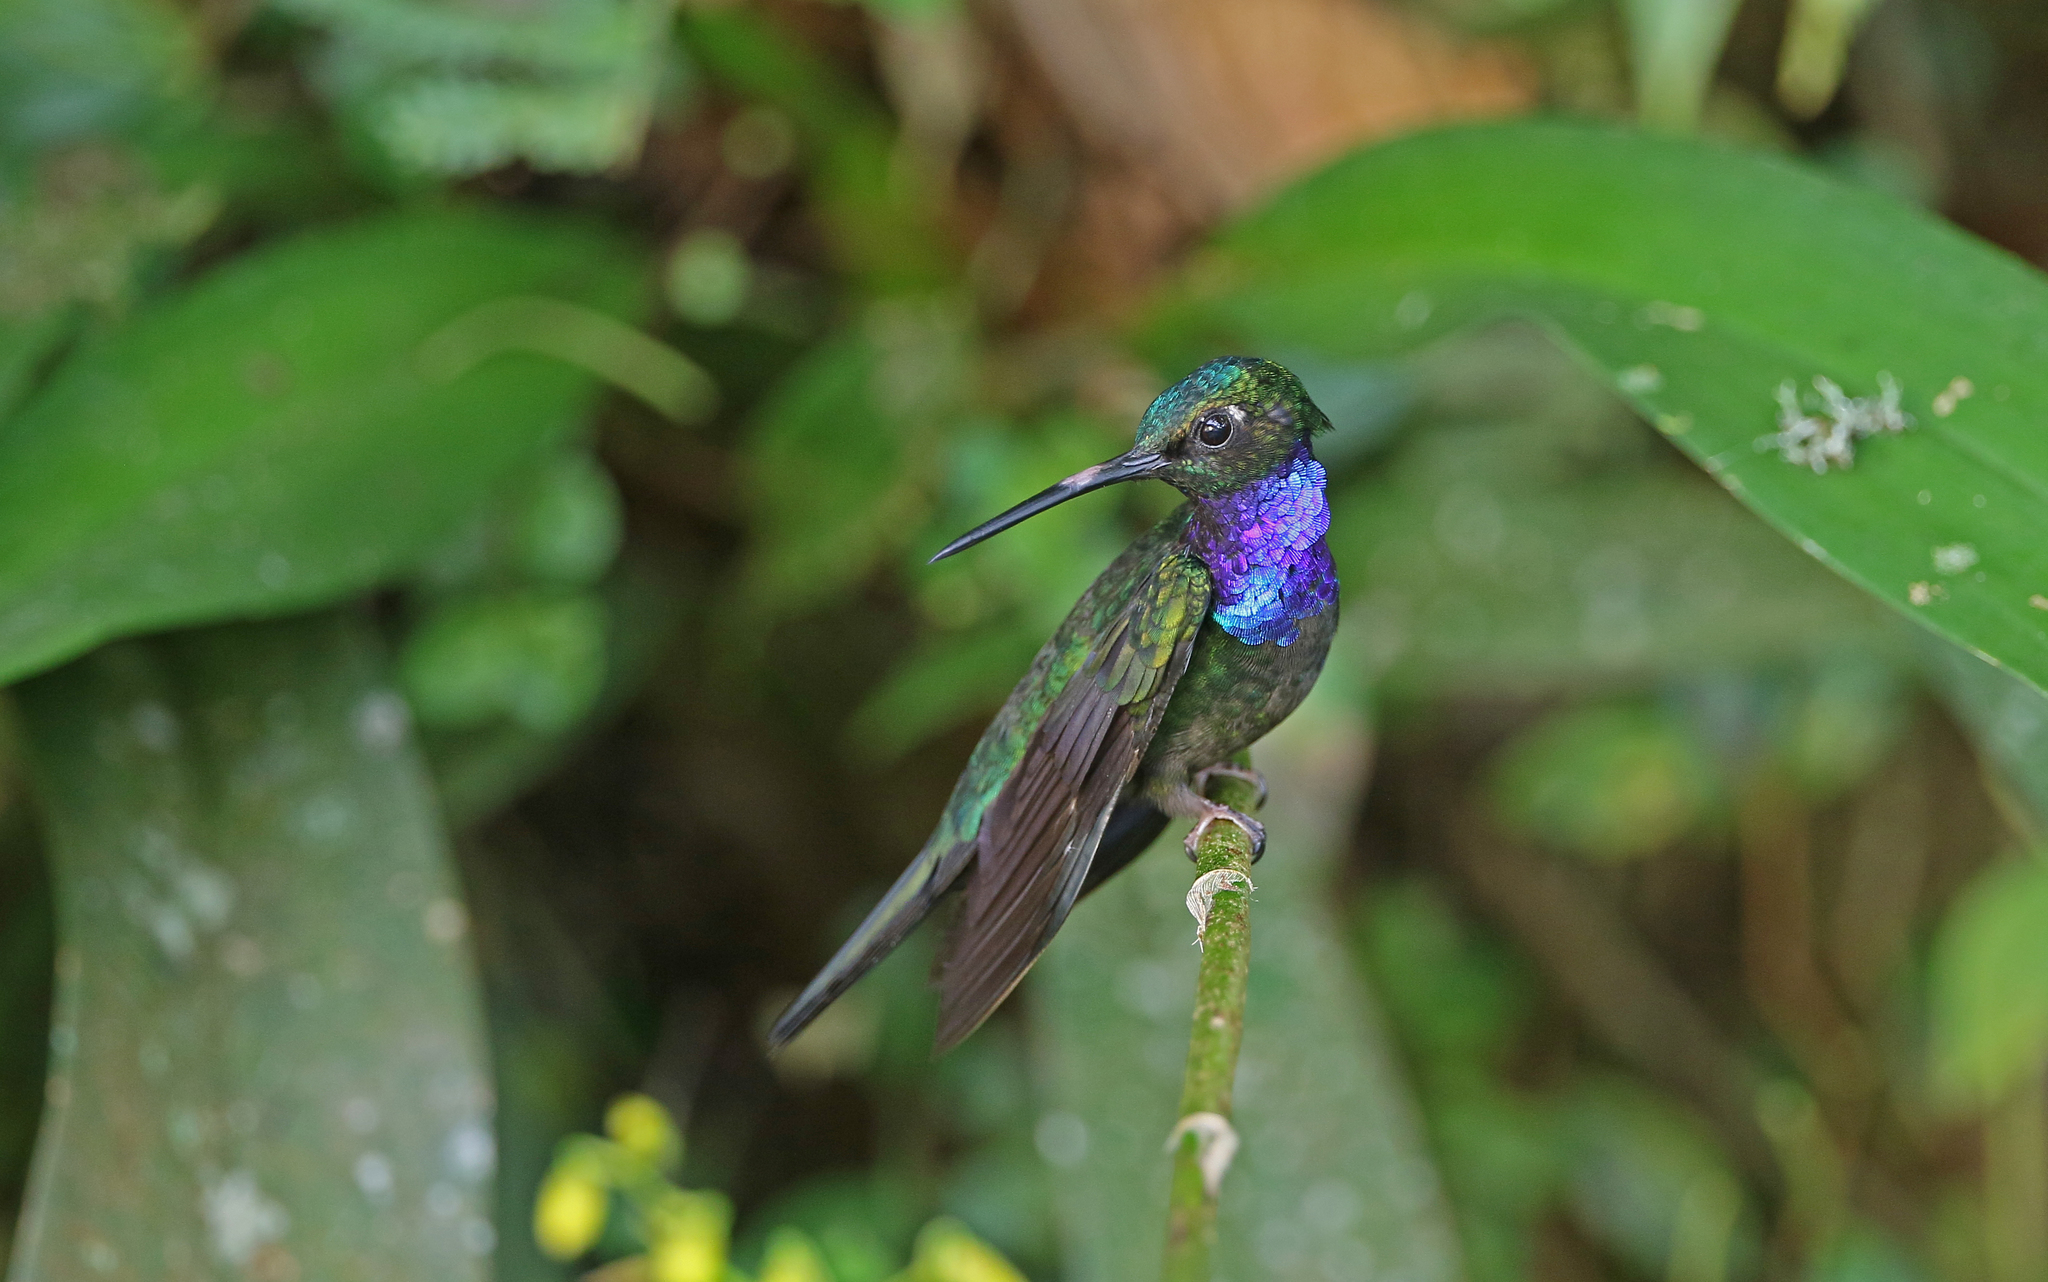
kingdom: Animalia
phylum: Chordata
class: Aves
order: Apodiformes
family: Trochilidae
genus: Campylopterus
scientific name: Campylopterus villaviscensio
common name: Napo sabrewing
